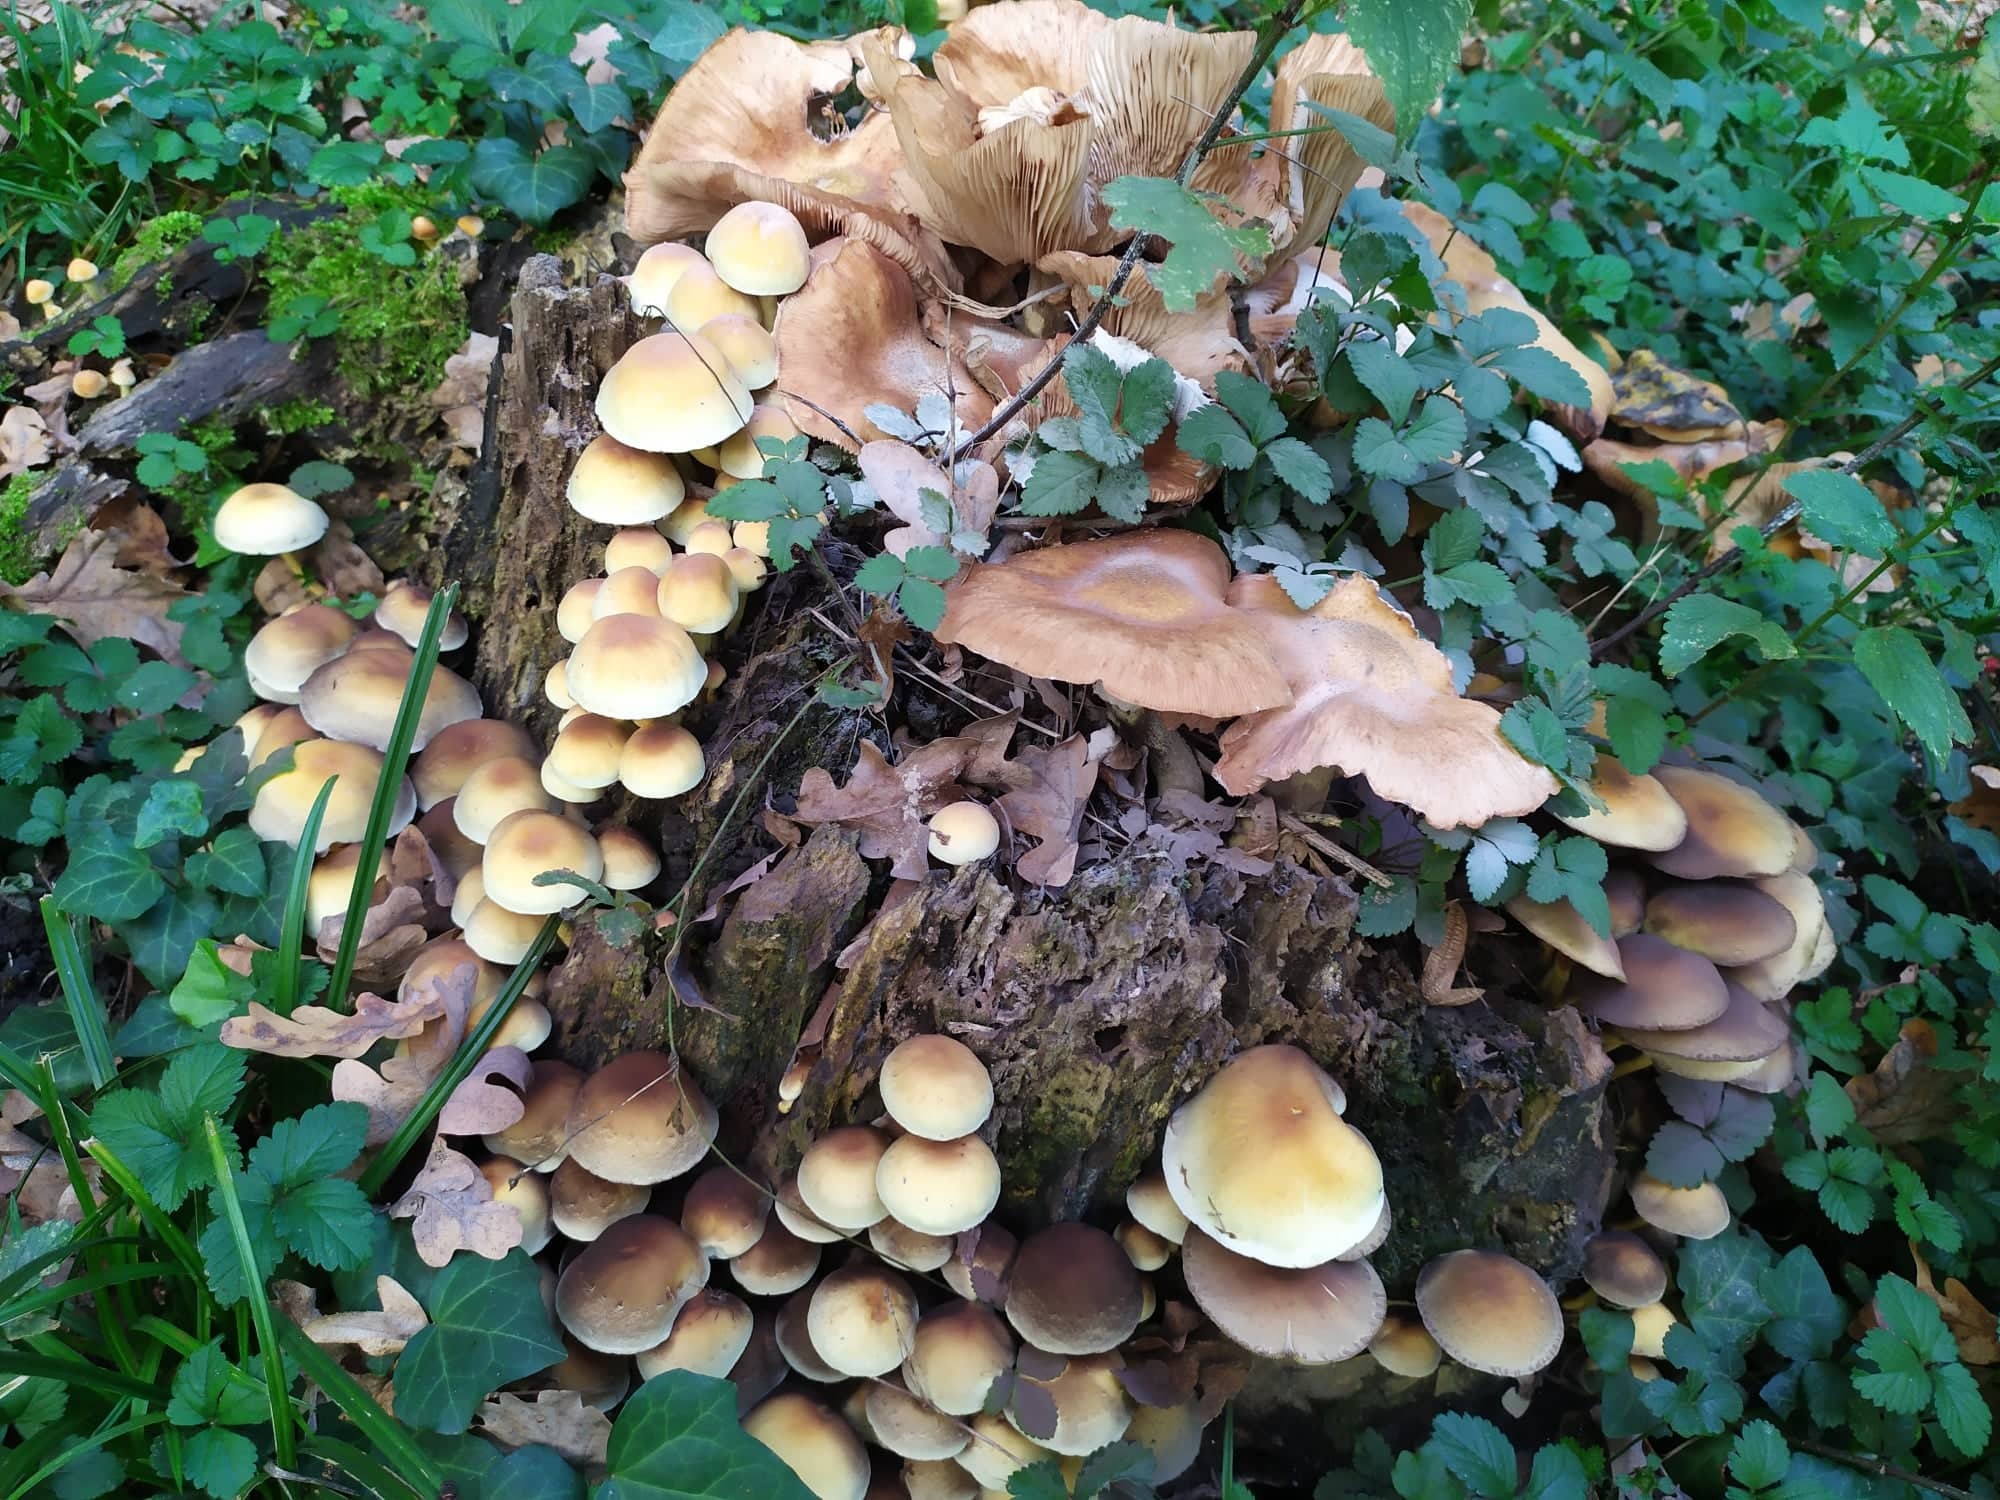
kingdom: Fungi
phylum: Basidiomycota
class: Agaricomycetes
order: Agaricales
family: Strophariaceae
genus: Hypholoma
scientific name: Hypholoma fasciculare
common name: Sulphur tuft
